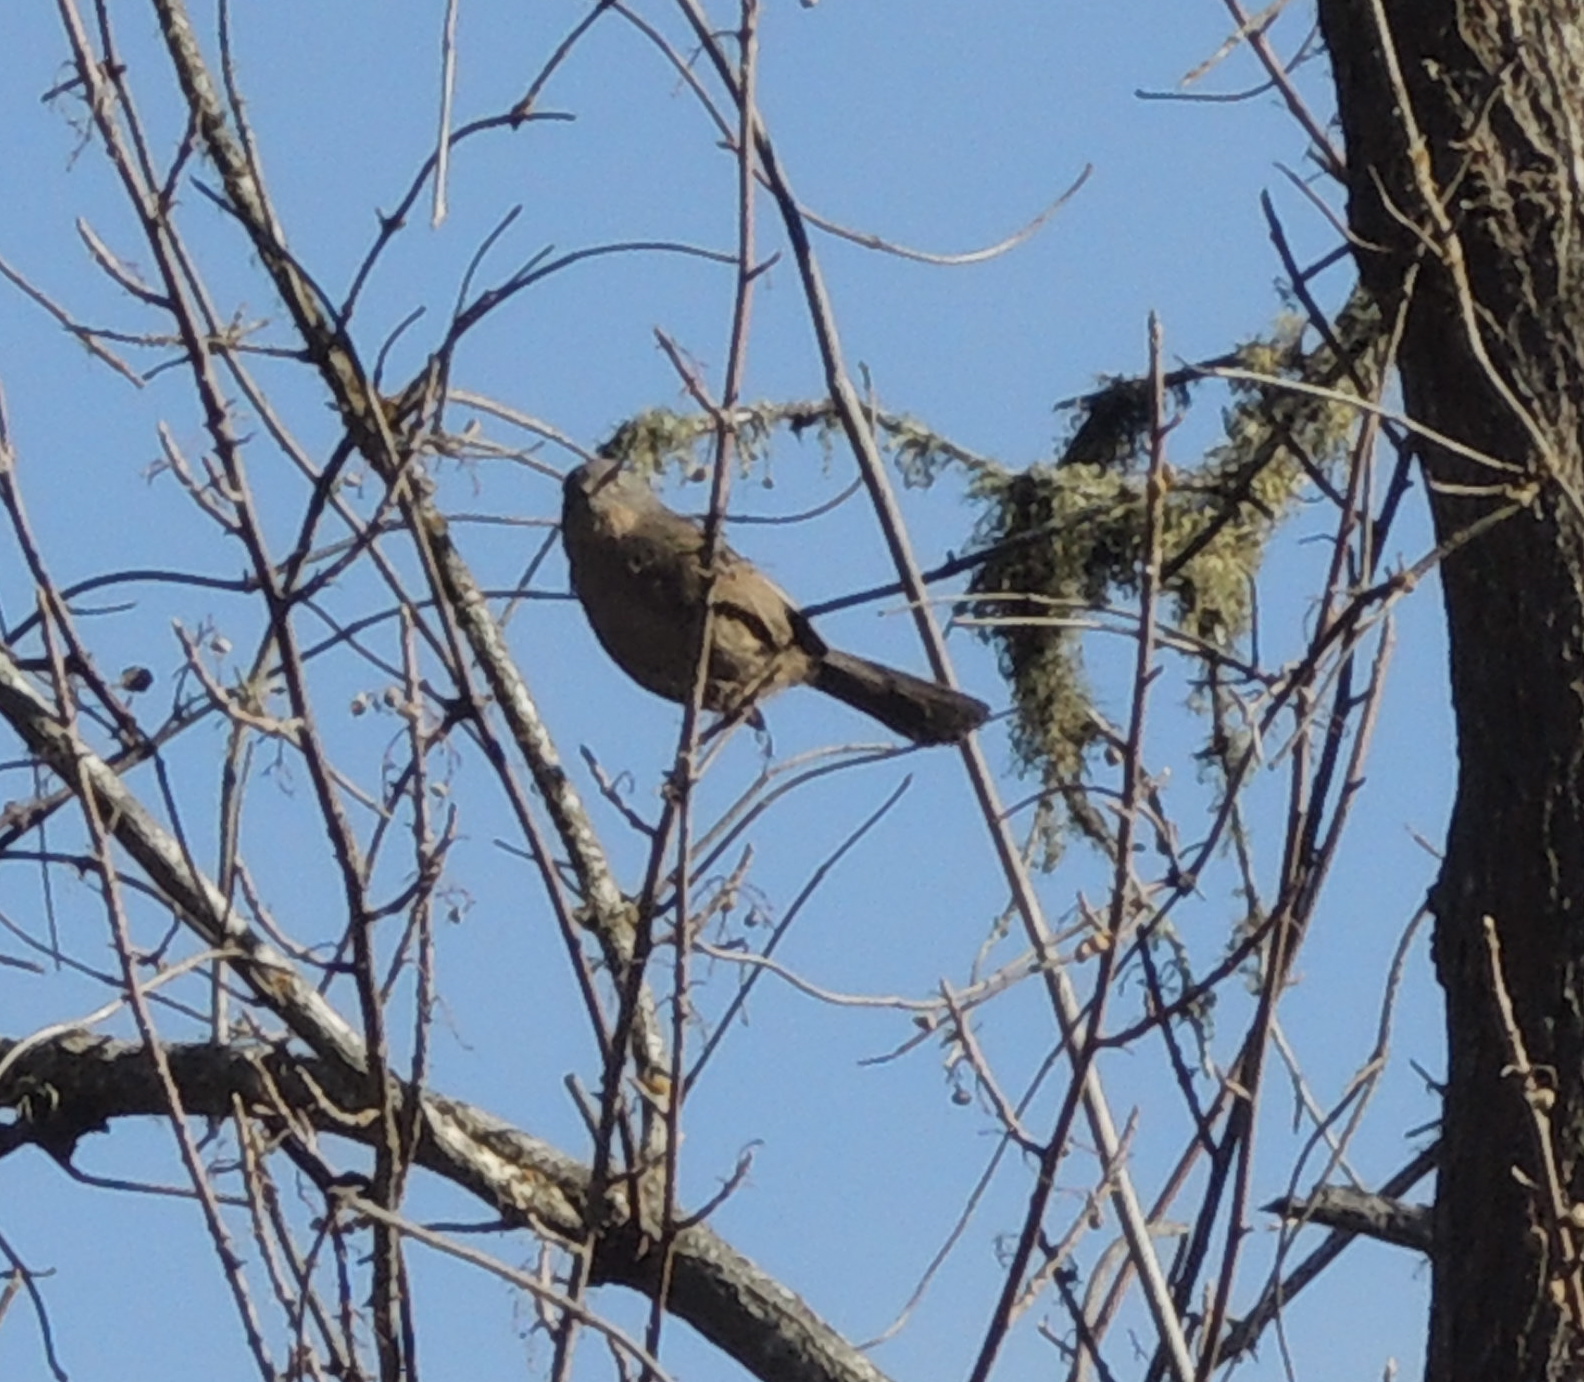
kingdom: Animalia
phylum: Chordata
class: Aves
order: Passeriformes
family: Sylviidae
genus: Chamaea
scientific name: Chamaea fasciata
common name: Wrentit
